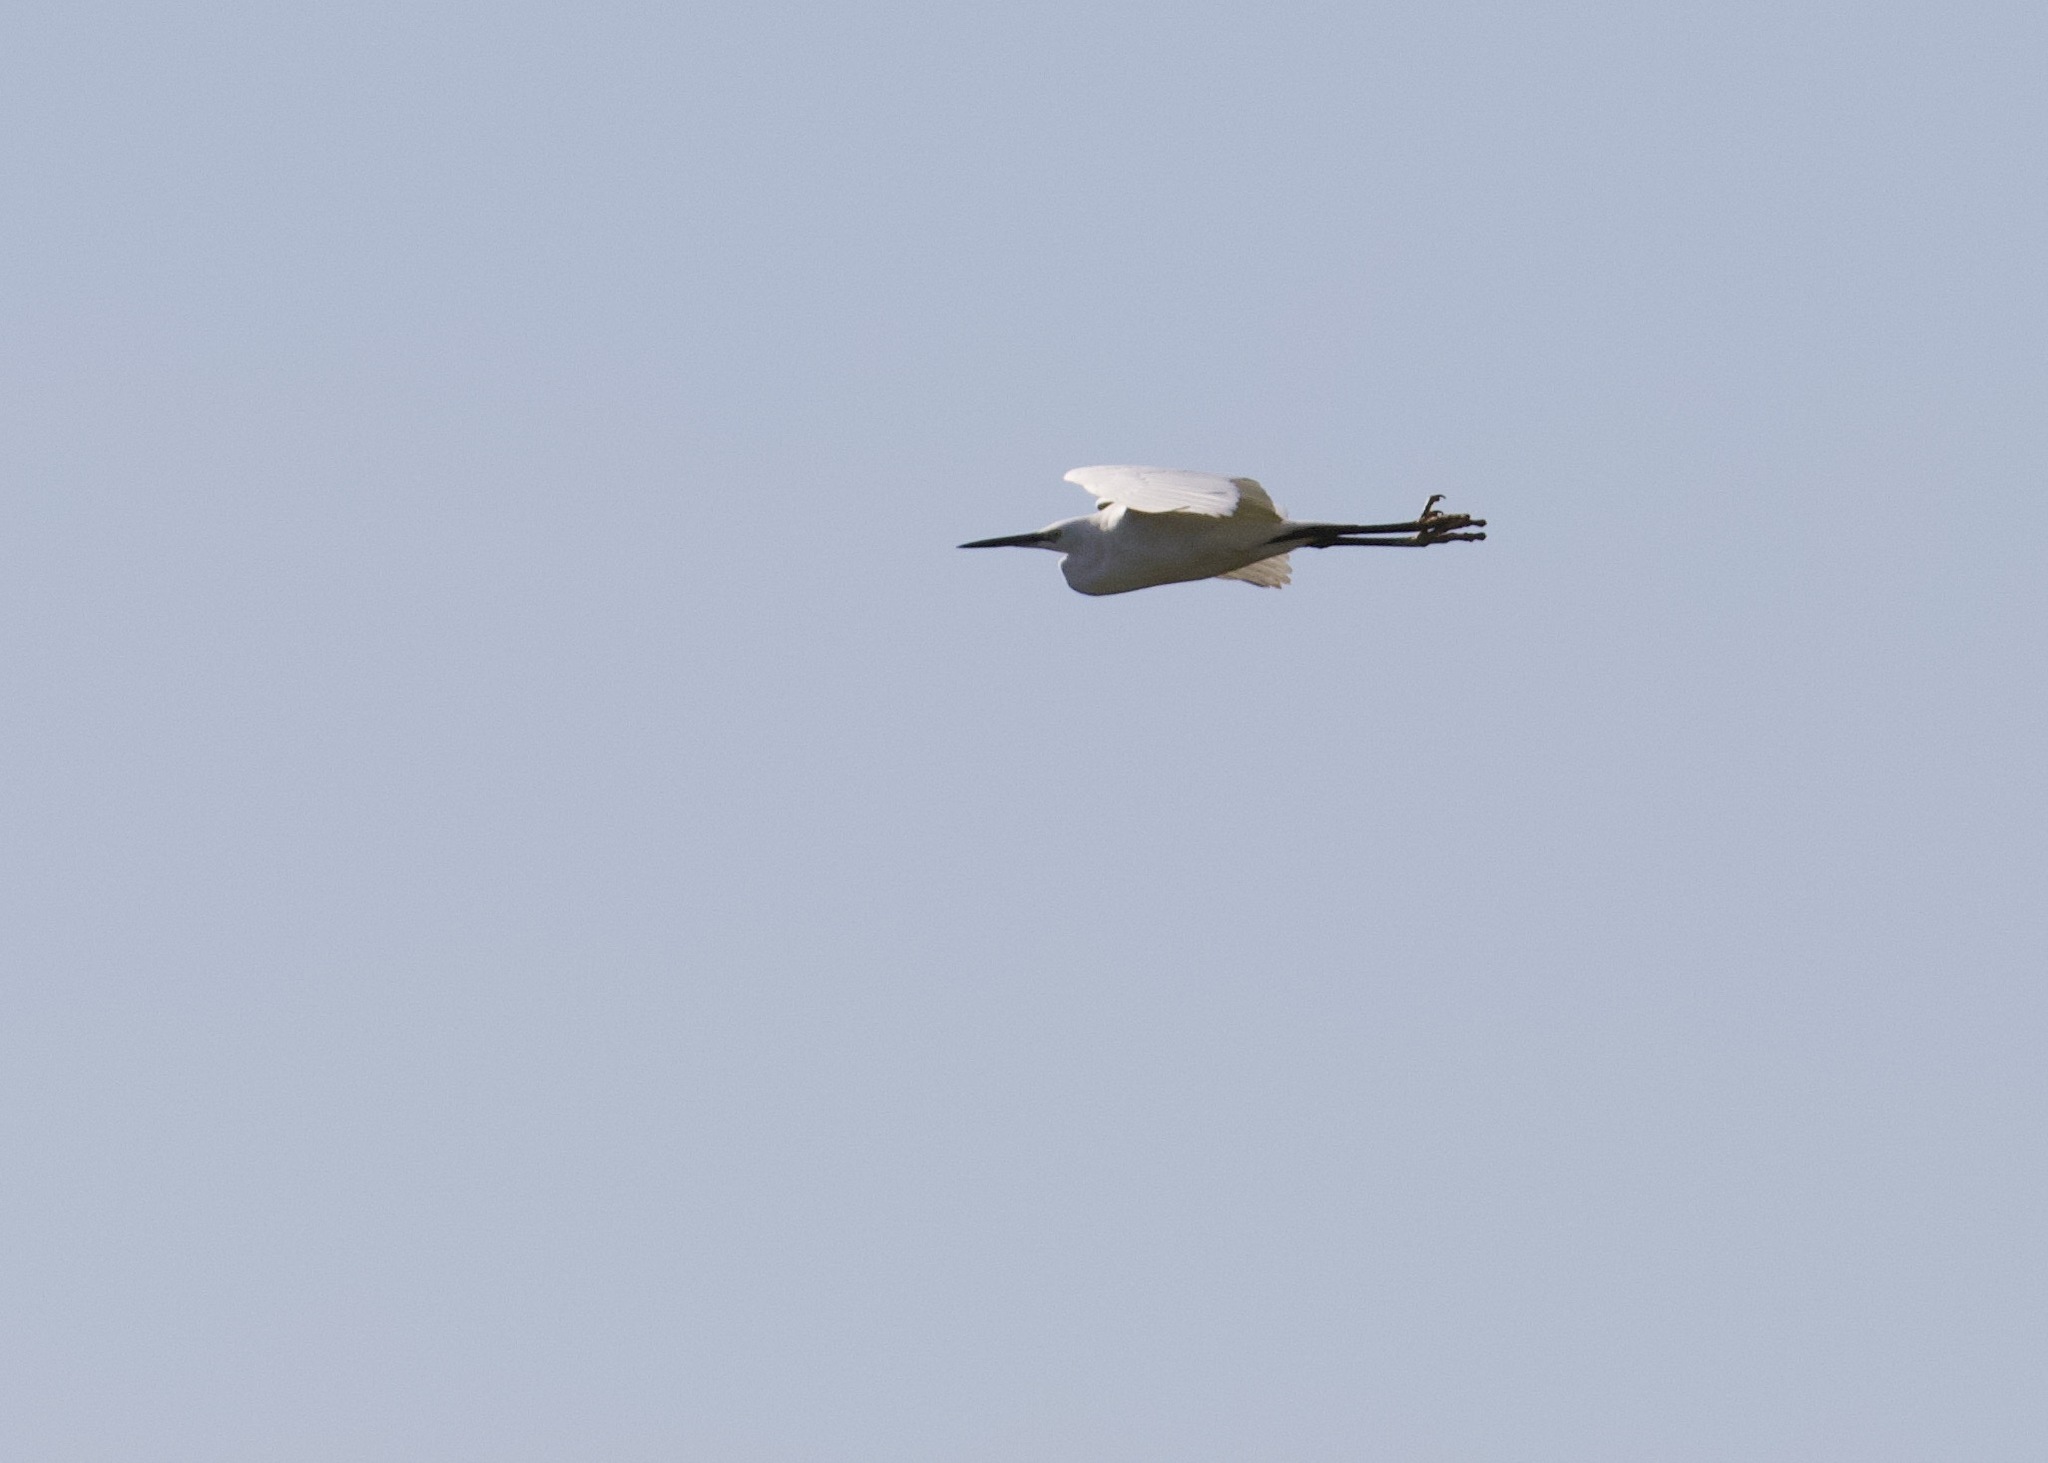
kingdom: Animalia
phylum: Chordata
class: Aves
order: Pelecaniformes
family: Ardeidae
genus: Egretta
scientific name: Egretta garzetta
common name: Little egret
